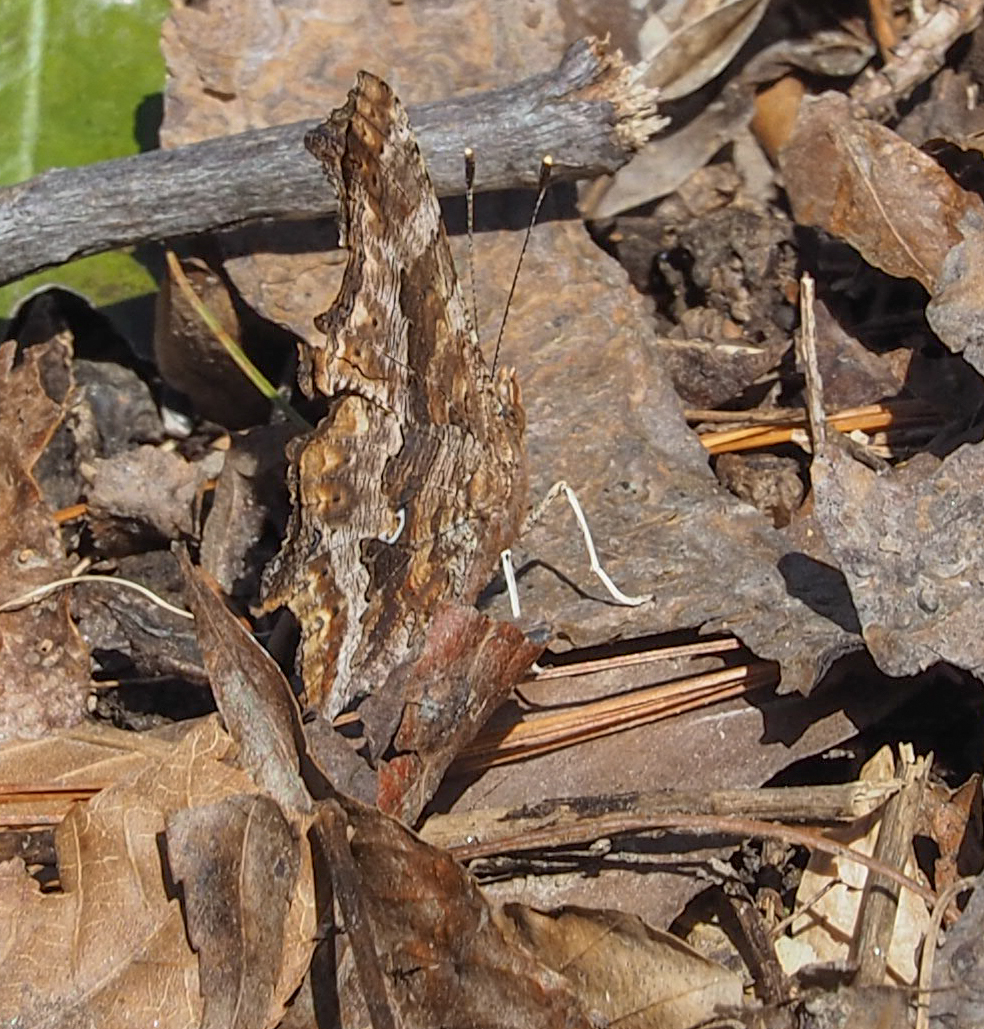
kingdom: Animalia
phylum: Arthropoda
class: Insecta
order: Lepidoptera
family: Nymphalidae
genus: Polygonia
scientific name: Polygonia comma
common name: Eastern comma
